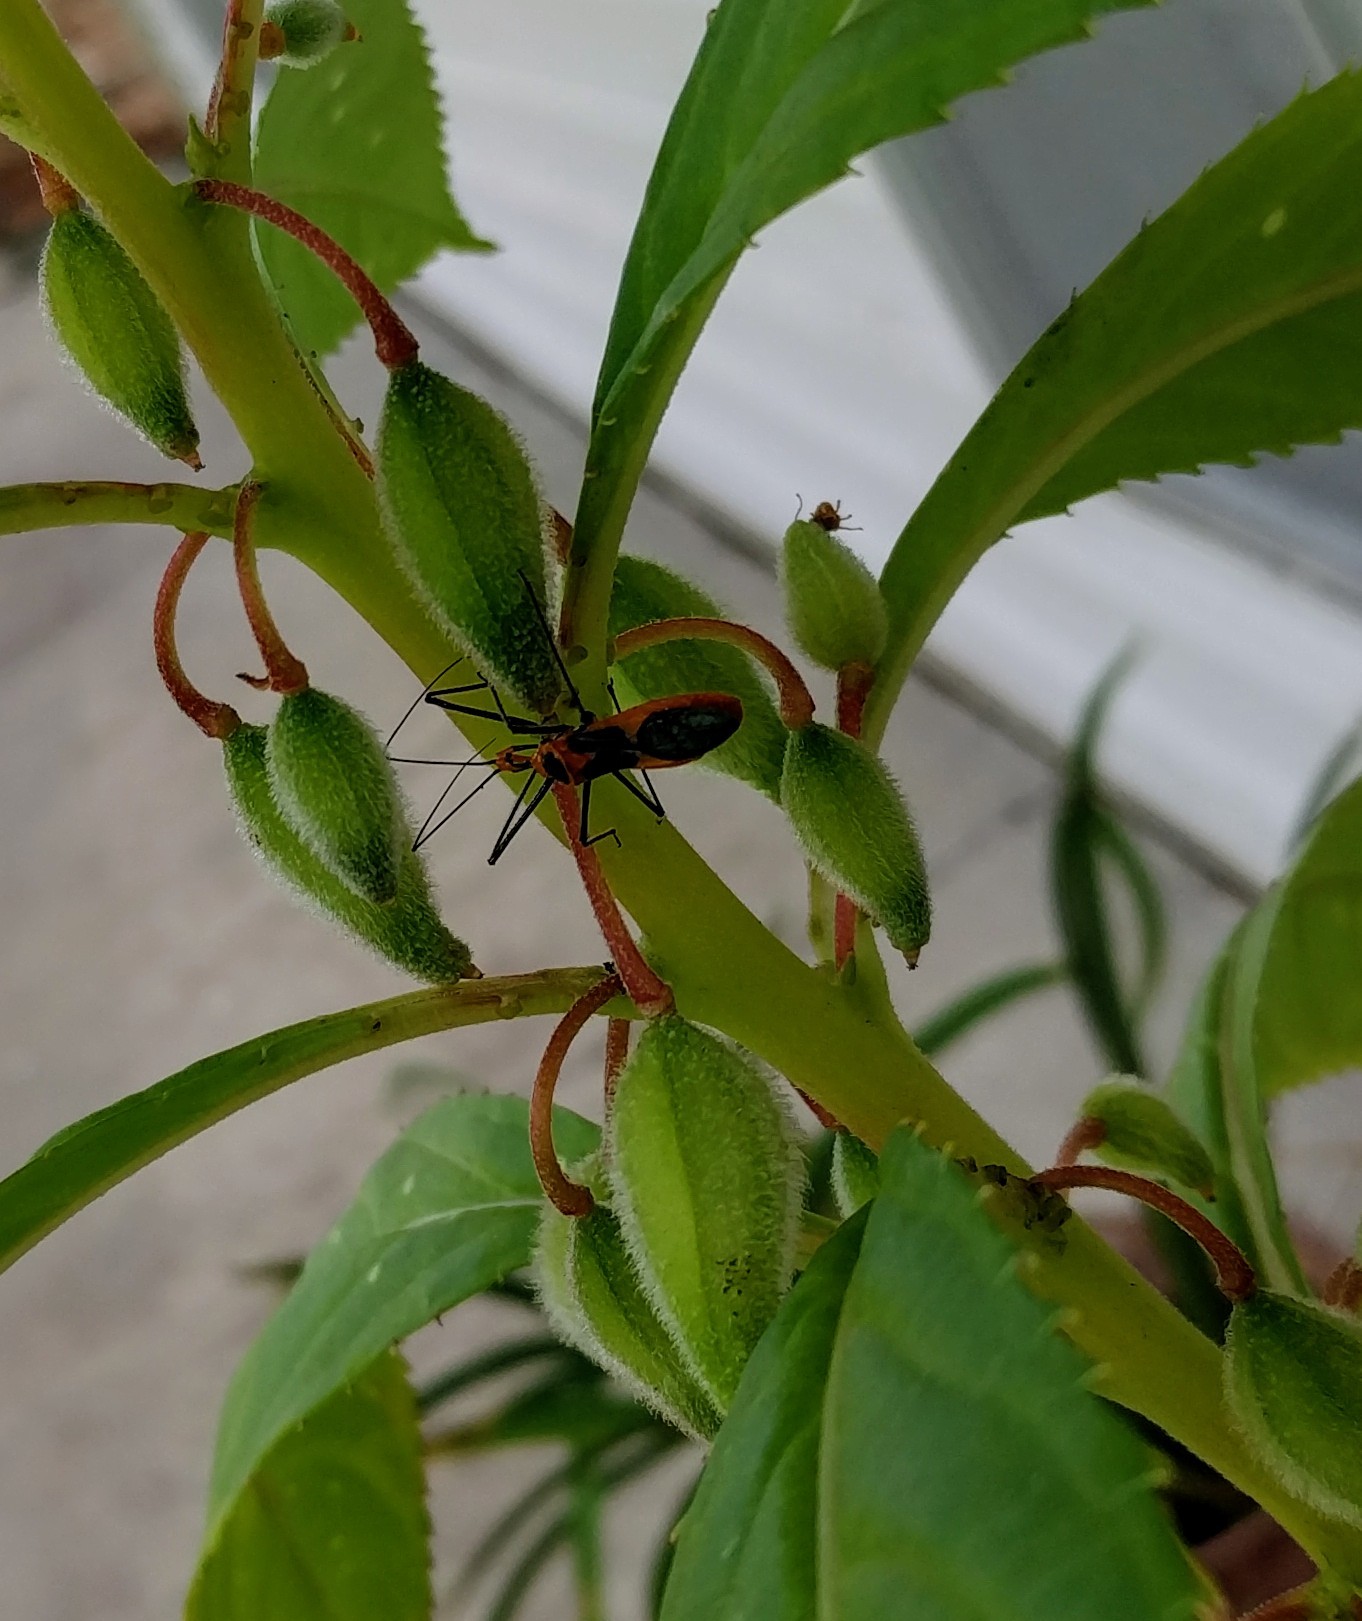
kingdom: Animalia
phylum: Arthropoda
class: Insecta
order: Hemiptera
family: Reduviidae
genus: Zelus
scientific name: Zelus longipes
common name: Milkweed assassin bug
